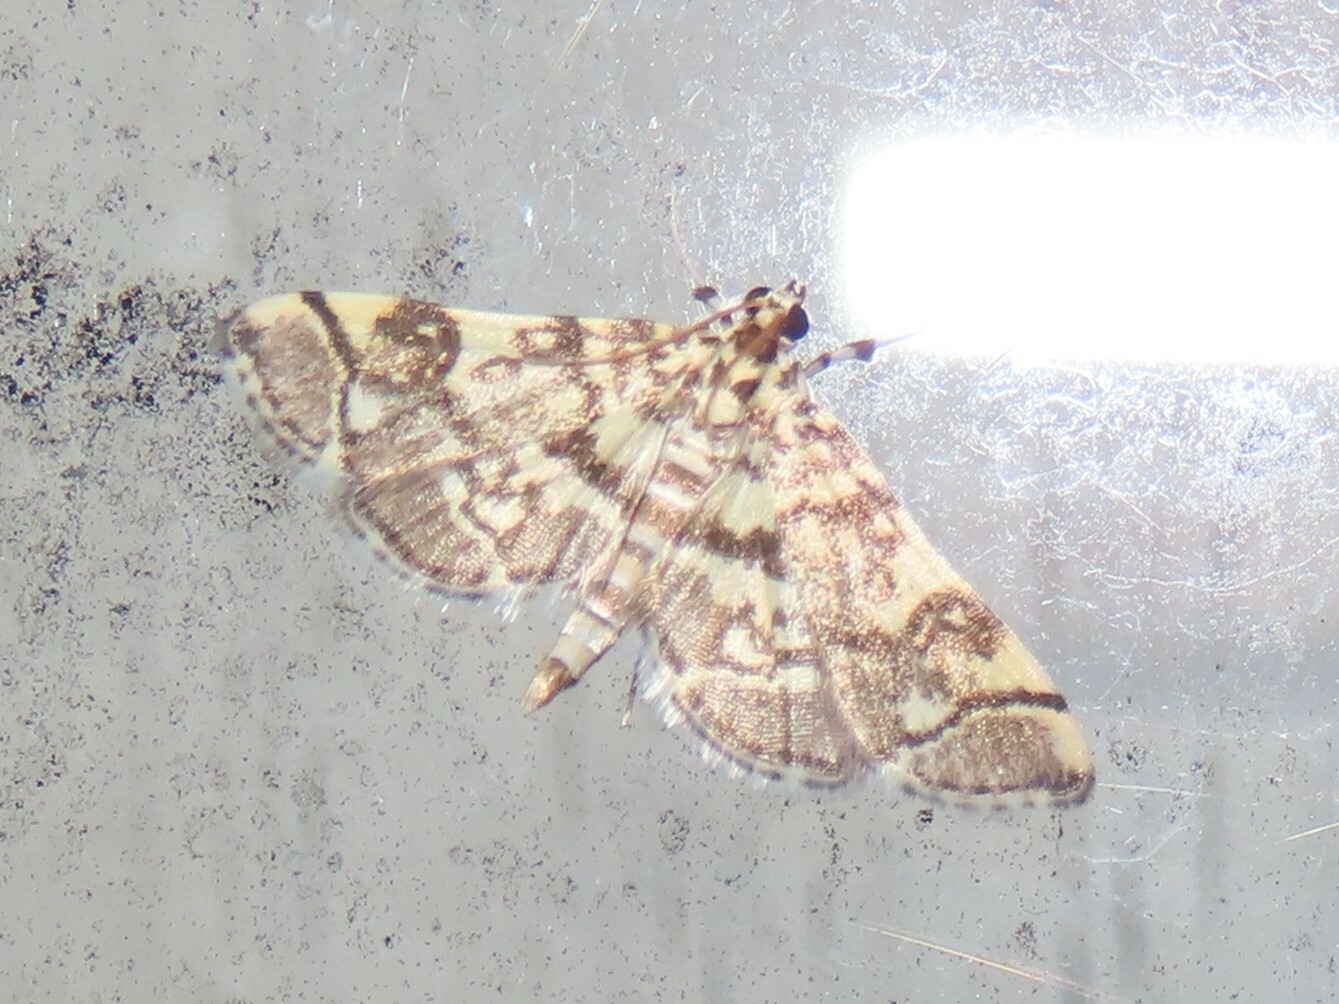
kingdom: Animalia
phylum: Arthropoda
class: Insecta
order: Lepidoptera
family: Crambidae
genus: Apogeshna
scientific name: Apogeshna stenialis
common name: Checkered apogeshna moth
